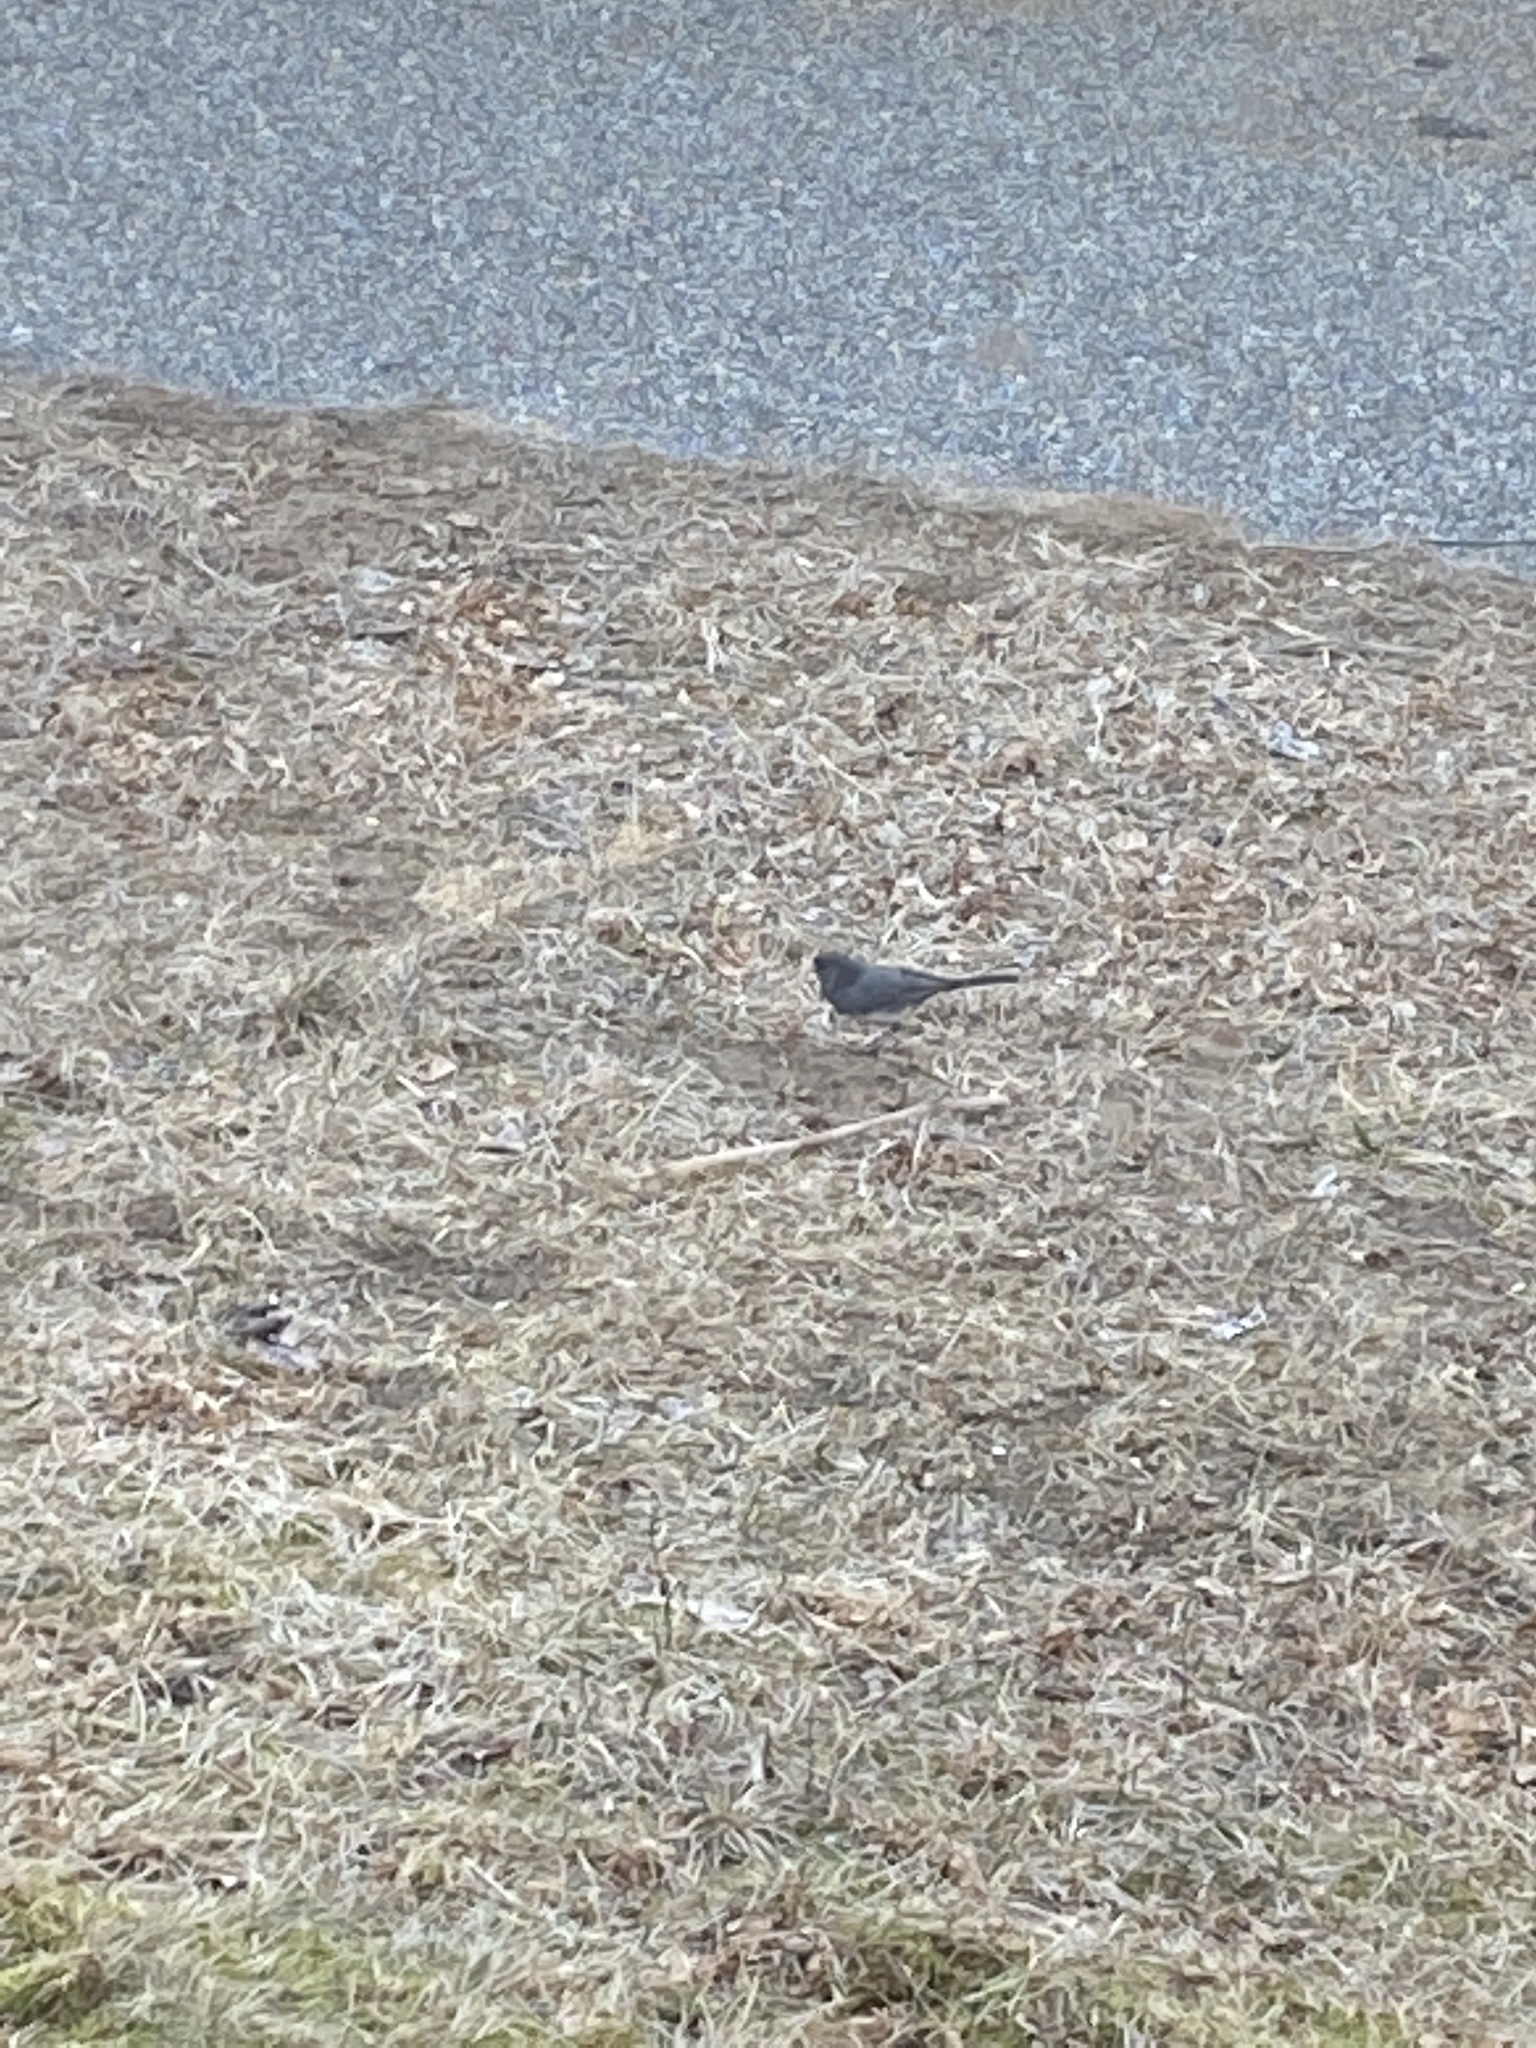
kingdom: Animalia
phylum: Chordata
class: Aves
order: Passeriformes
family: Passerellidae
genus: Junco
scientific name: Junco hyemalis
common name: Dark-eyed junco
